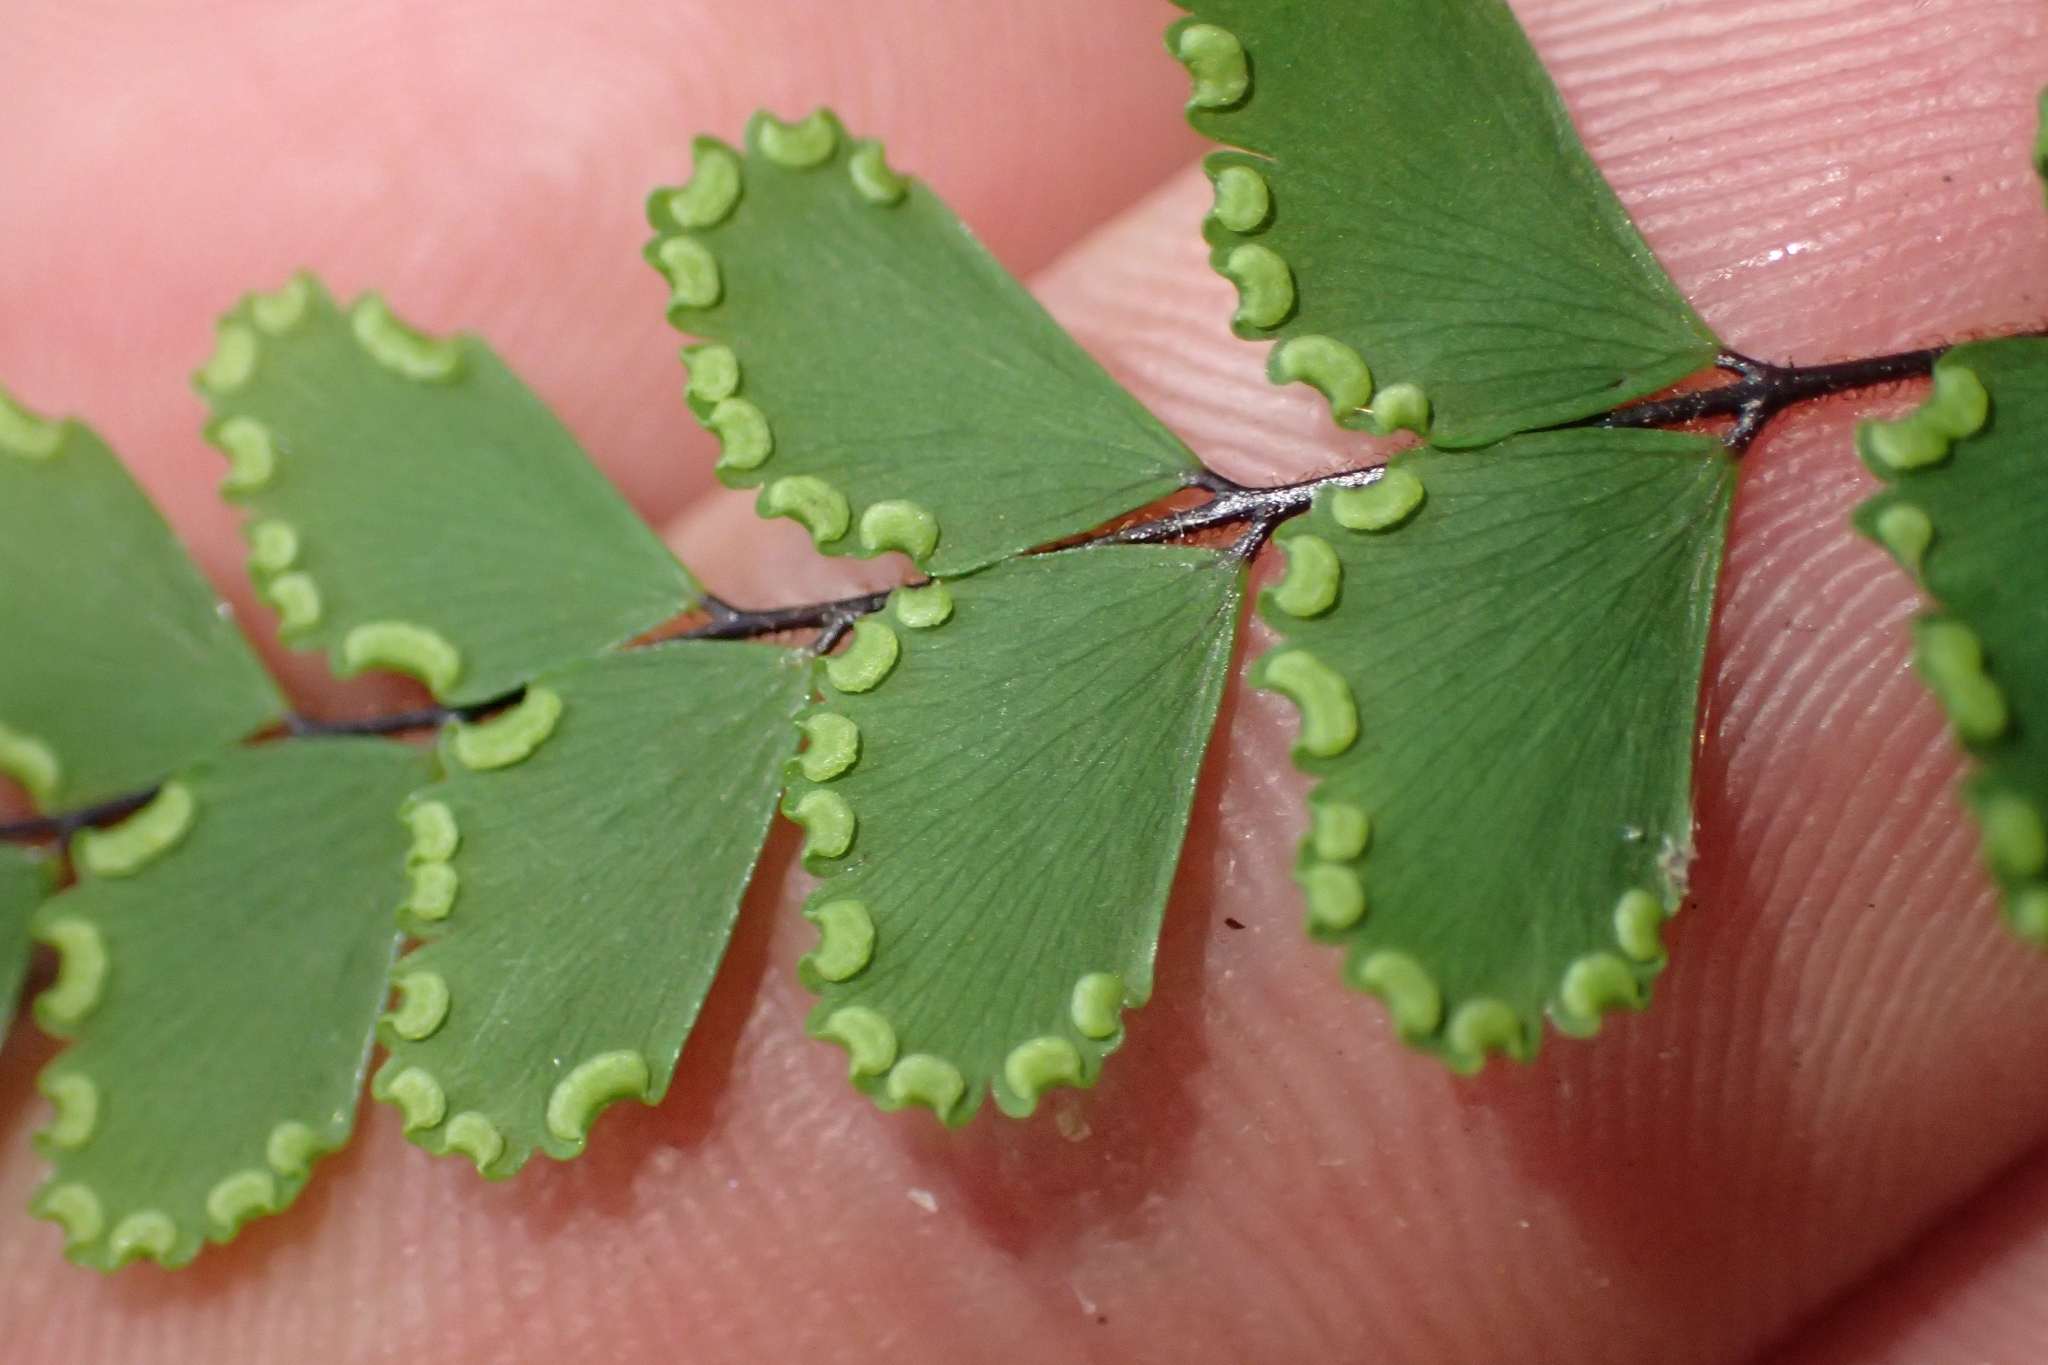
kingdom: Plantae
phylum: Tracheophyta
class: Polypodiopsida
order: Polypodiales
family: Pteridaceae
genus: Adiantum
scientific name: Adiantum formosum
